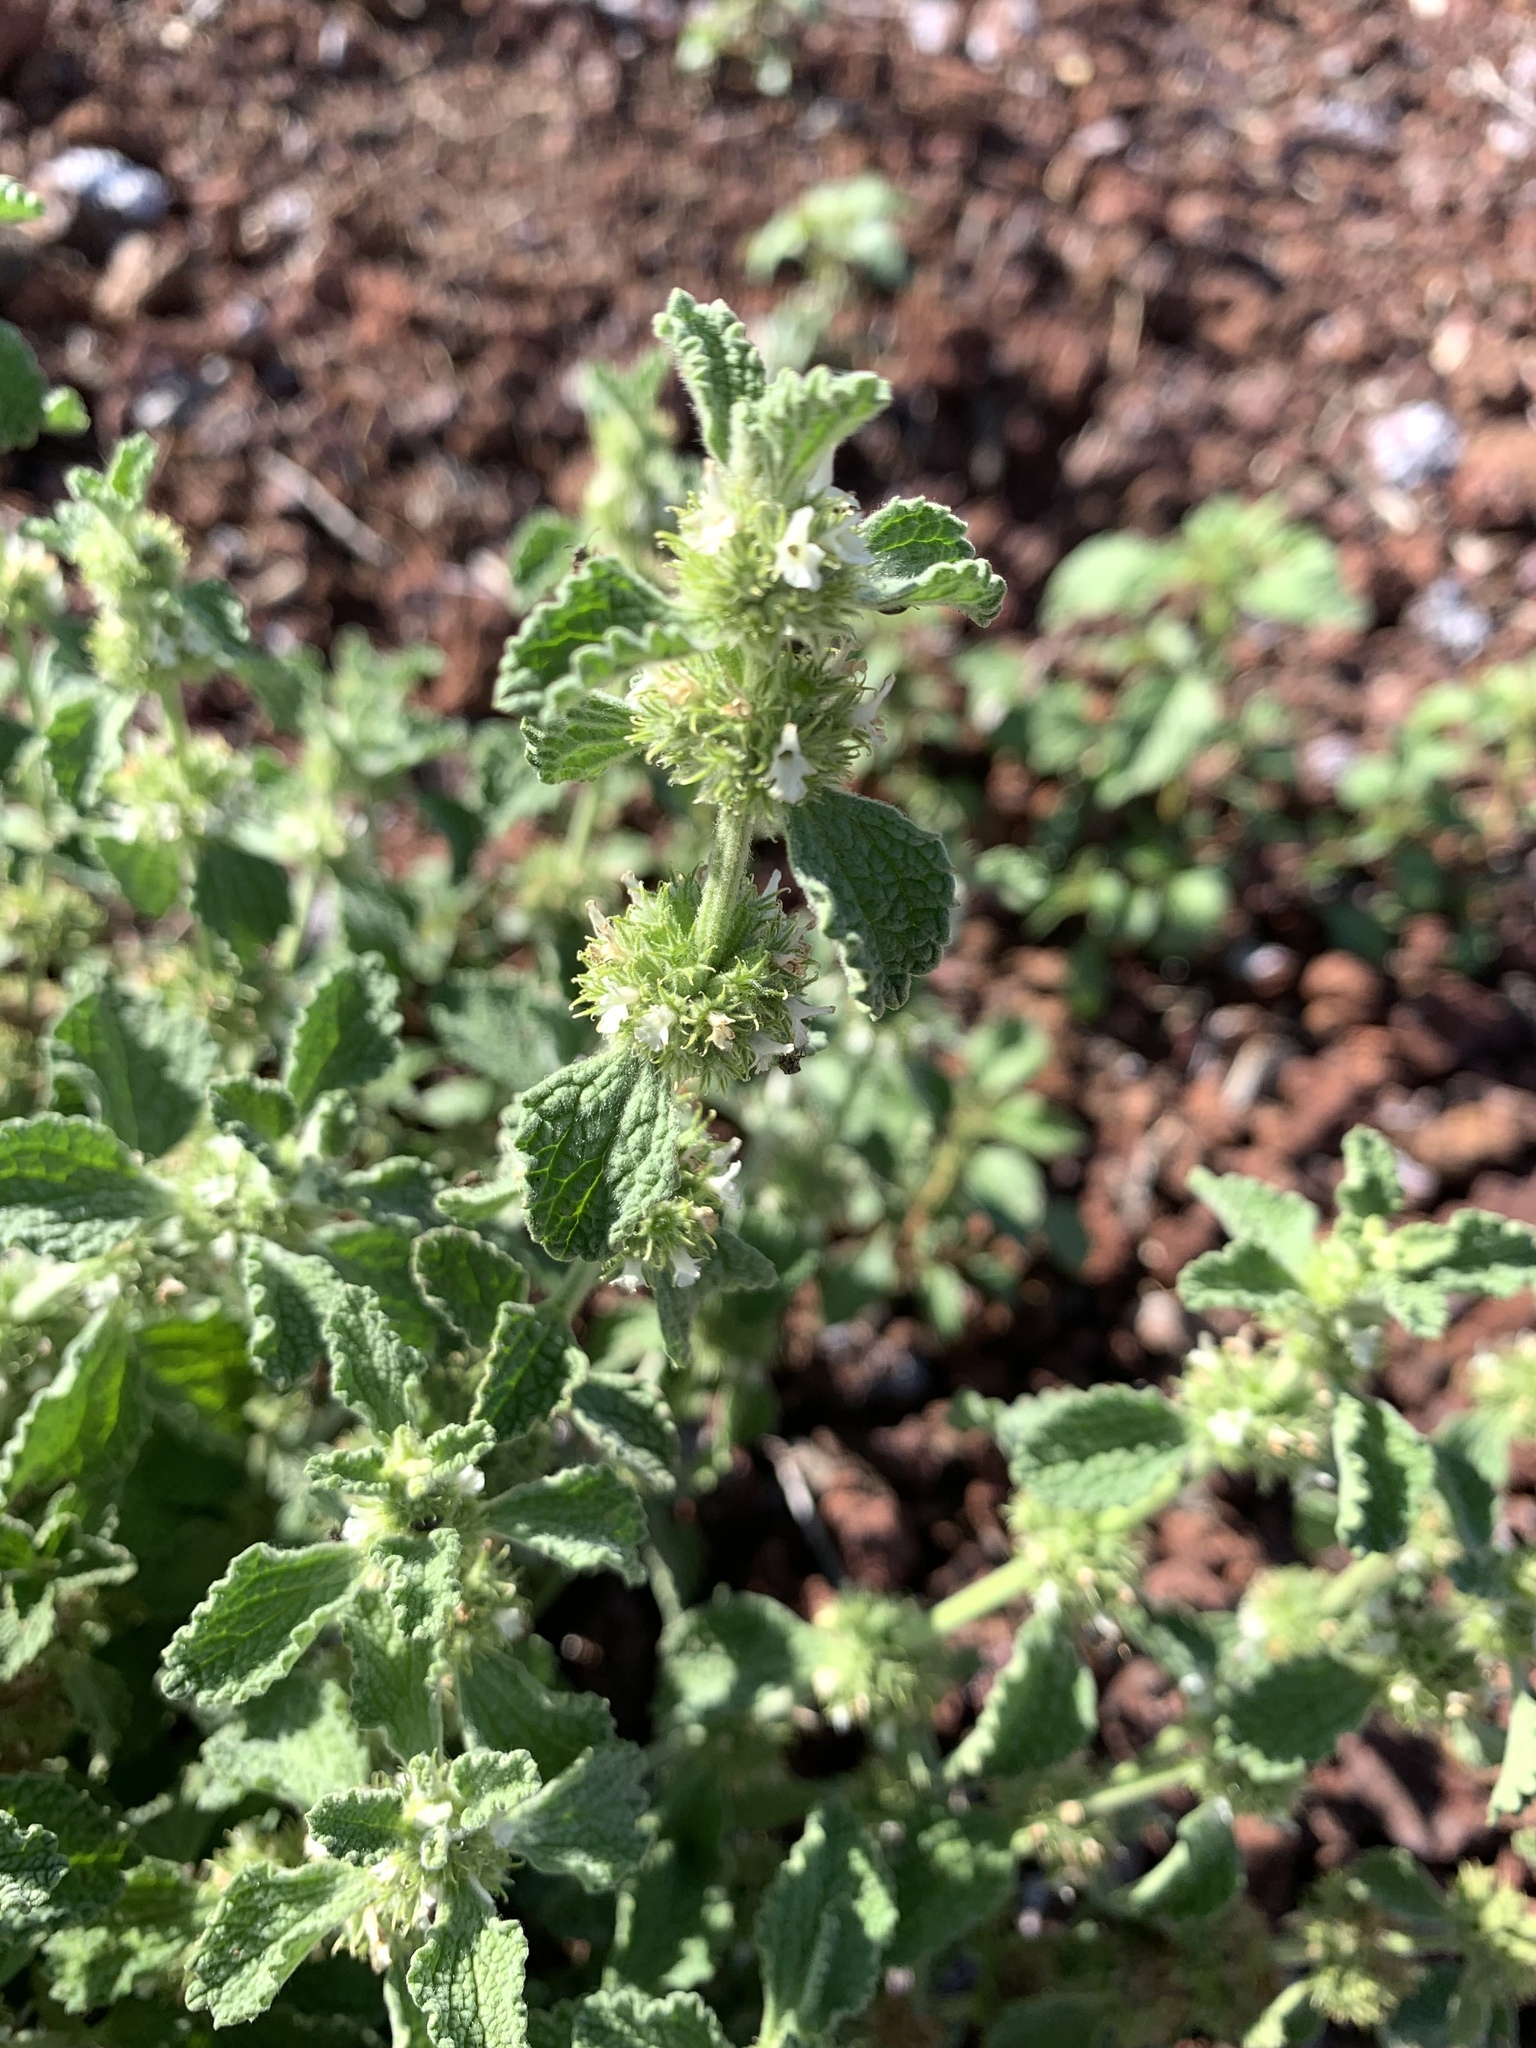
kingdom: Plantae
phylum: Tracheophyta
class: Magnoliopsida
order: Lamiales
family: Lamiaceae
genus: Marrubium
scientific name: Marrubium vulgare
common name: Horehound
